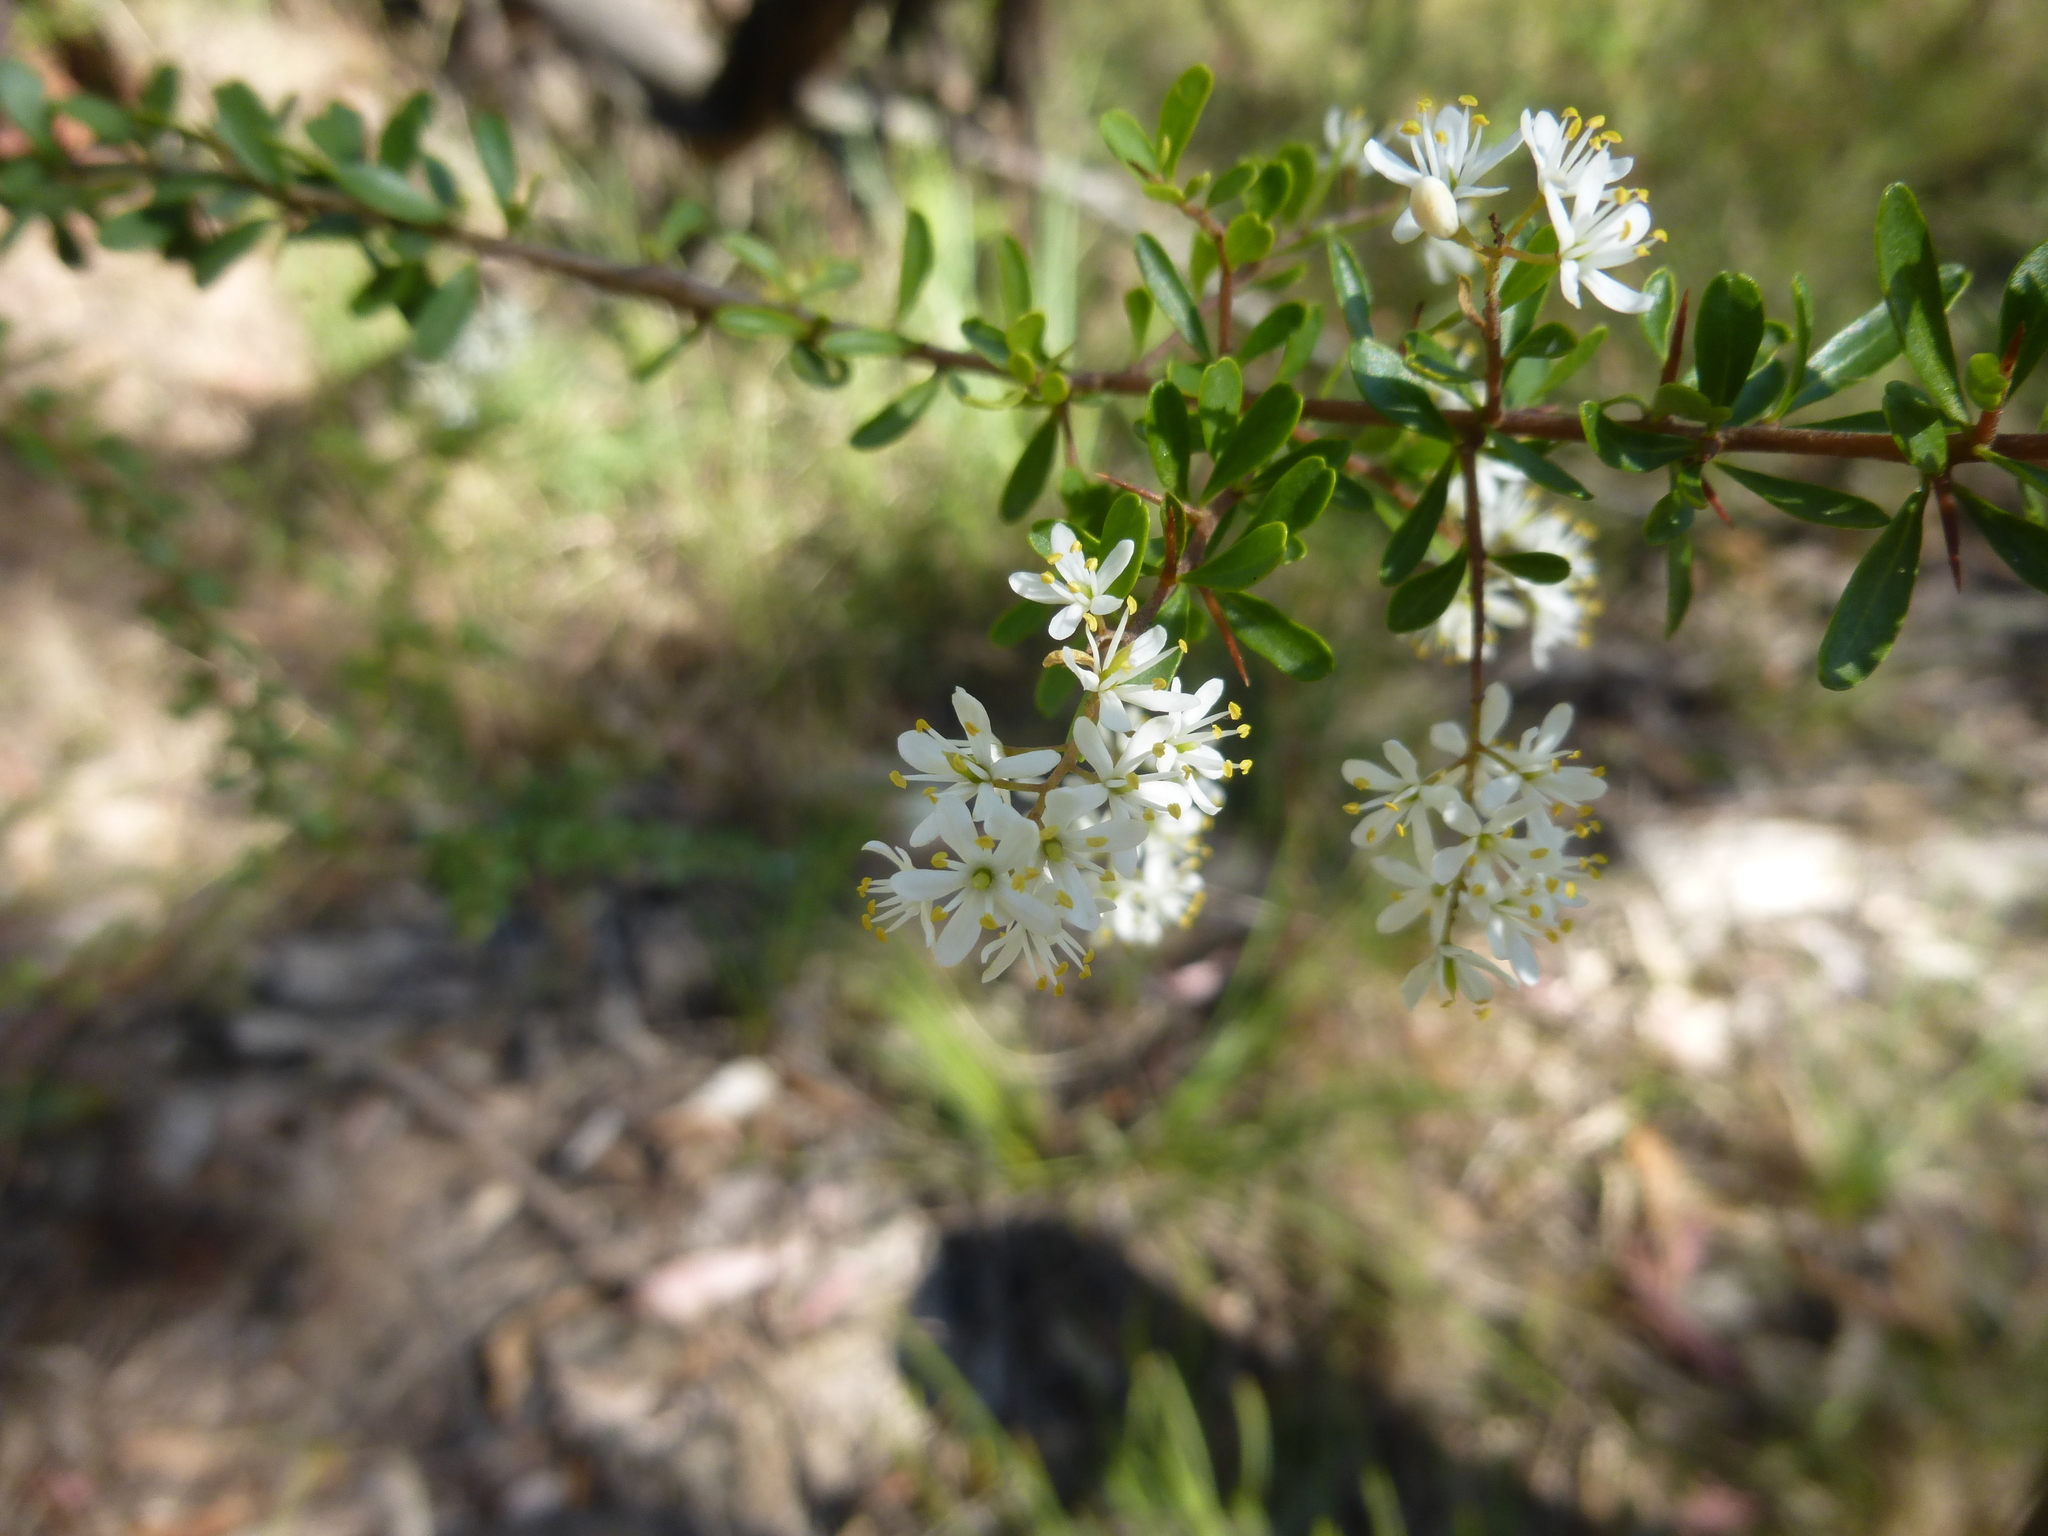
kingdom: Plantae
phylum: Tracheophyta
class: Magnoliopsida
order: Apiales
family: Pittosporaceae
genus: Bursaria
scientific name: Bursaria spinosa
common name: Australian blackthorn
